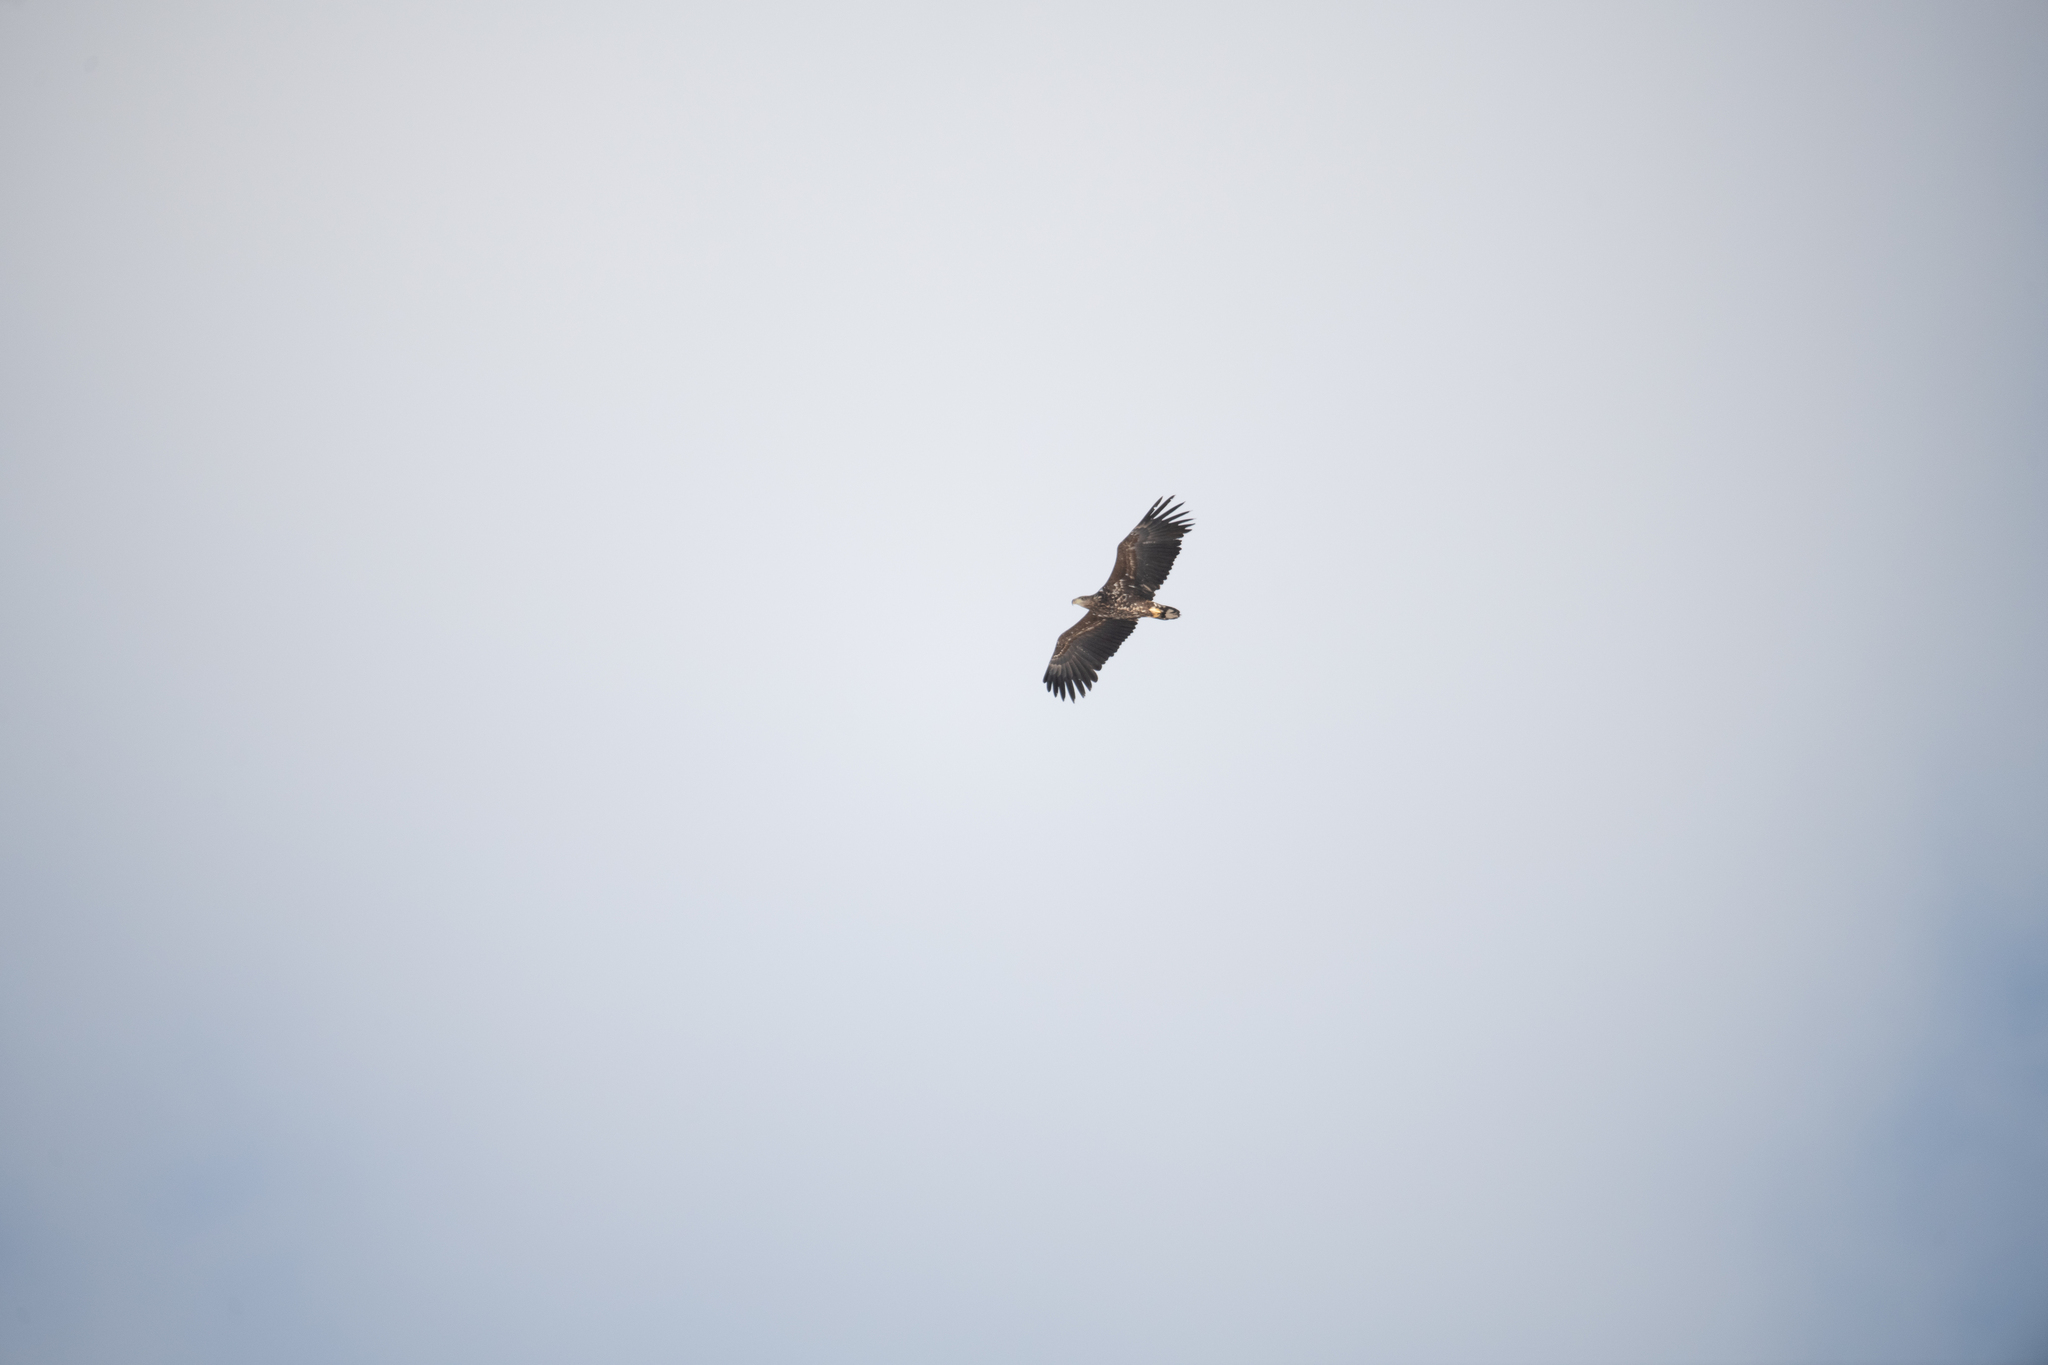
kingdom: Animalia
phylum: Chordata
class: Aves
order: Accipitriformes
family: Accipitridae
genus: Haliaeetus
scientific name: Haliaeetus albicilla
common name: White-tailed eagle
